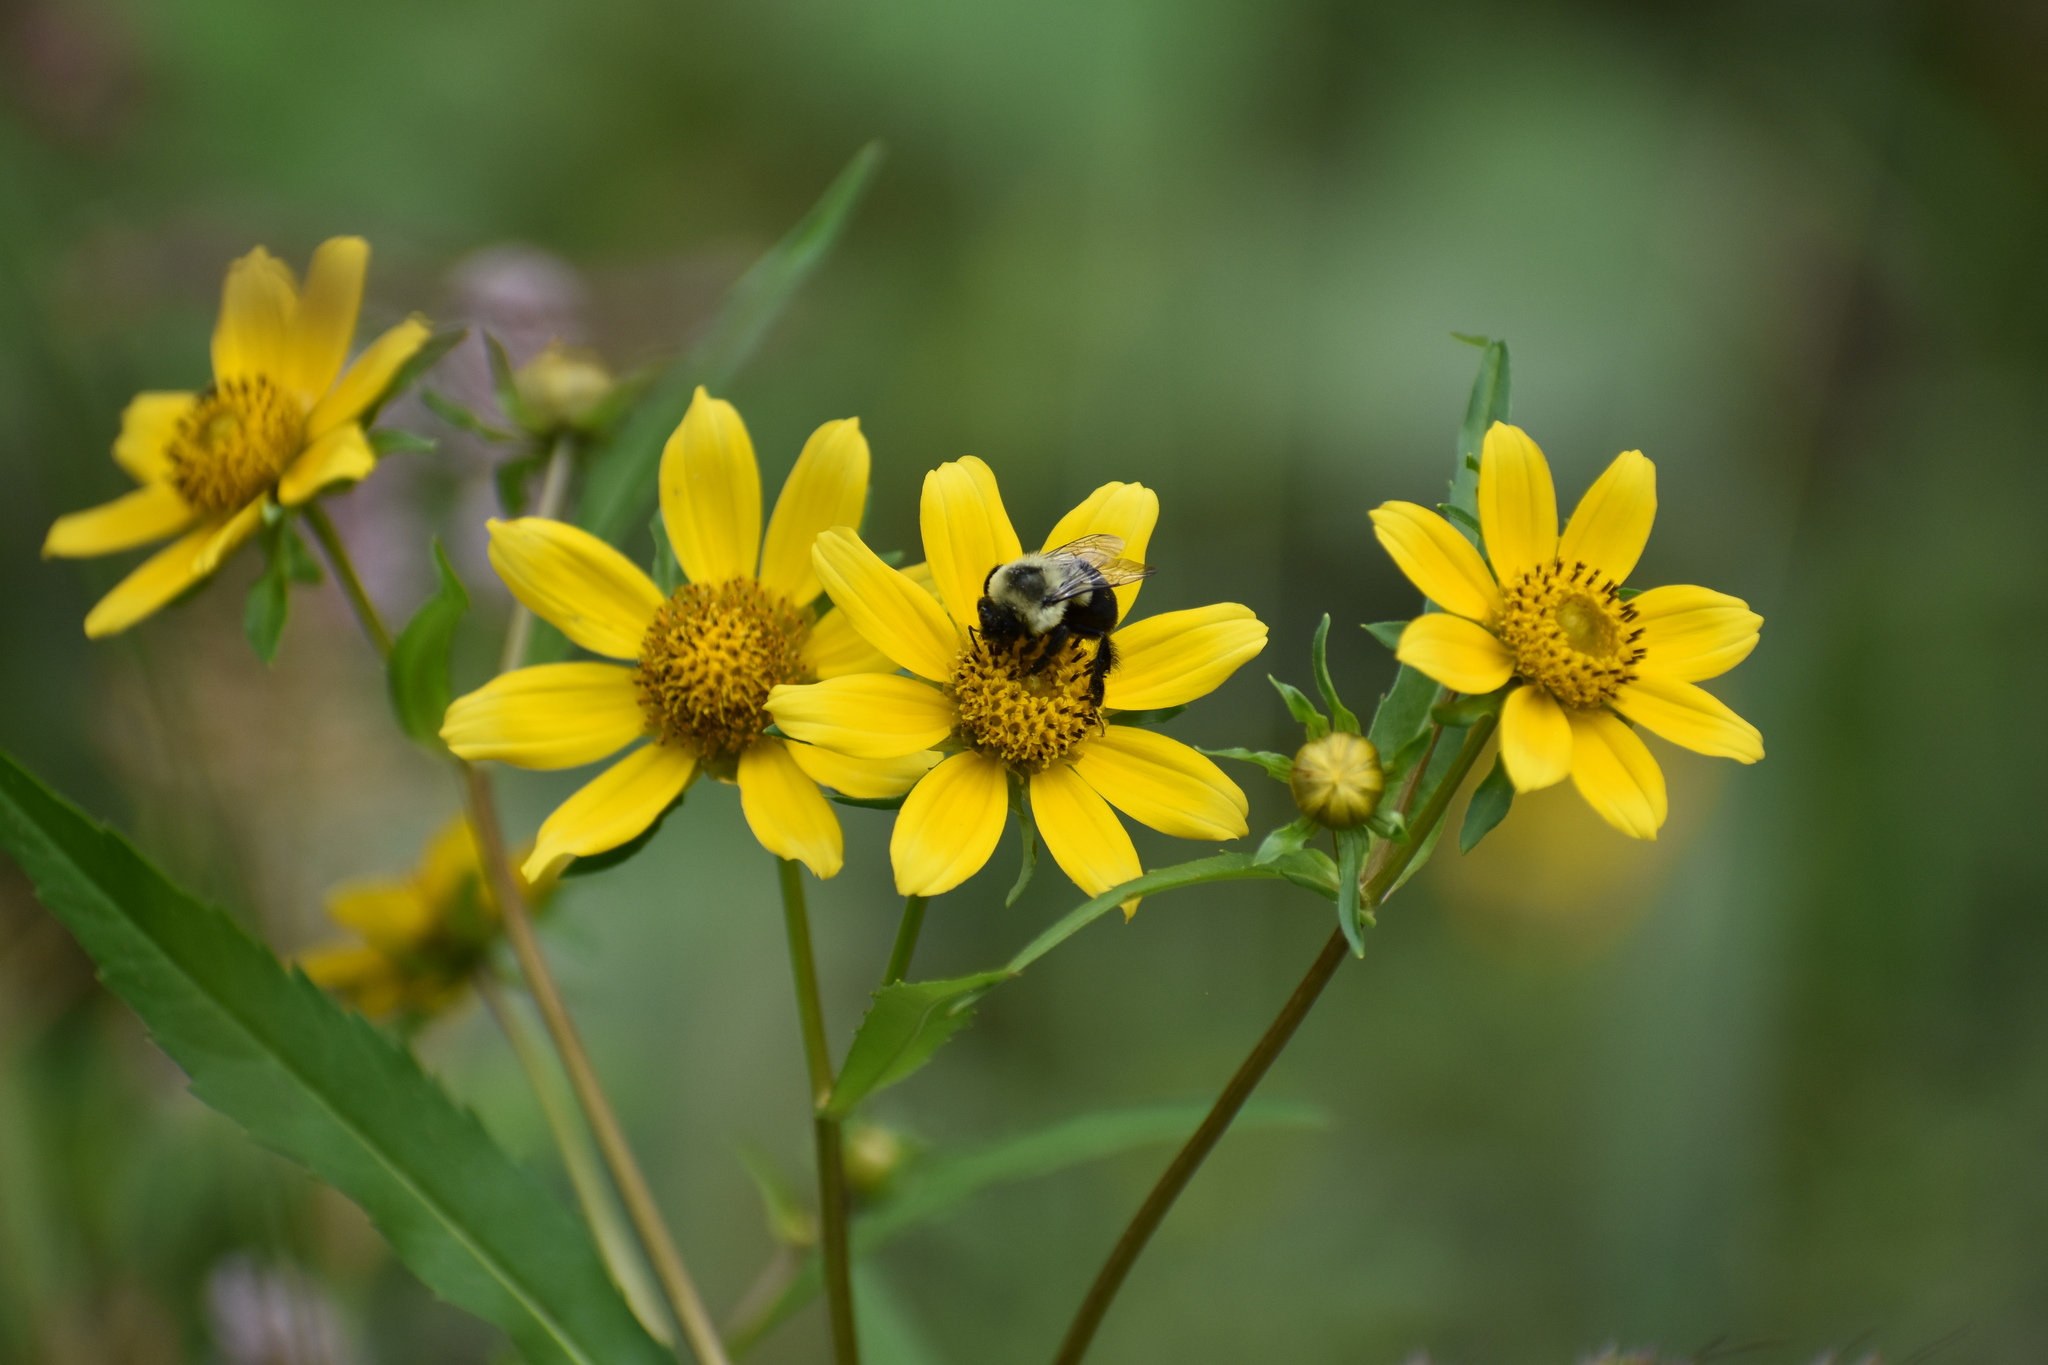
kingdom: Animalia
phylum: Arthropoda
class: Insecta
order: Hymenoptera
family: Apidae
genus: Bombus
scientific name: Bombus impatiens
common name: Common eastern bumble bee
